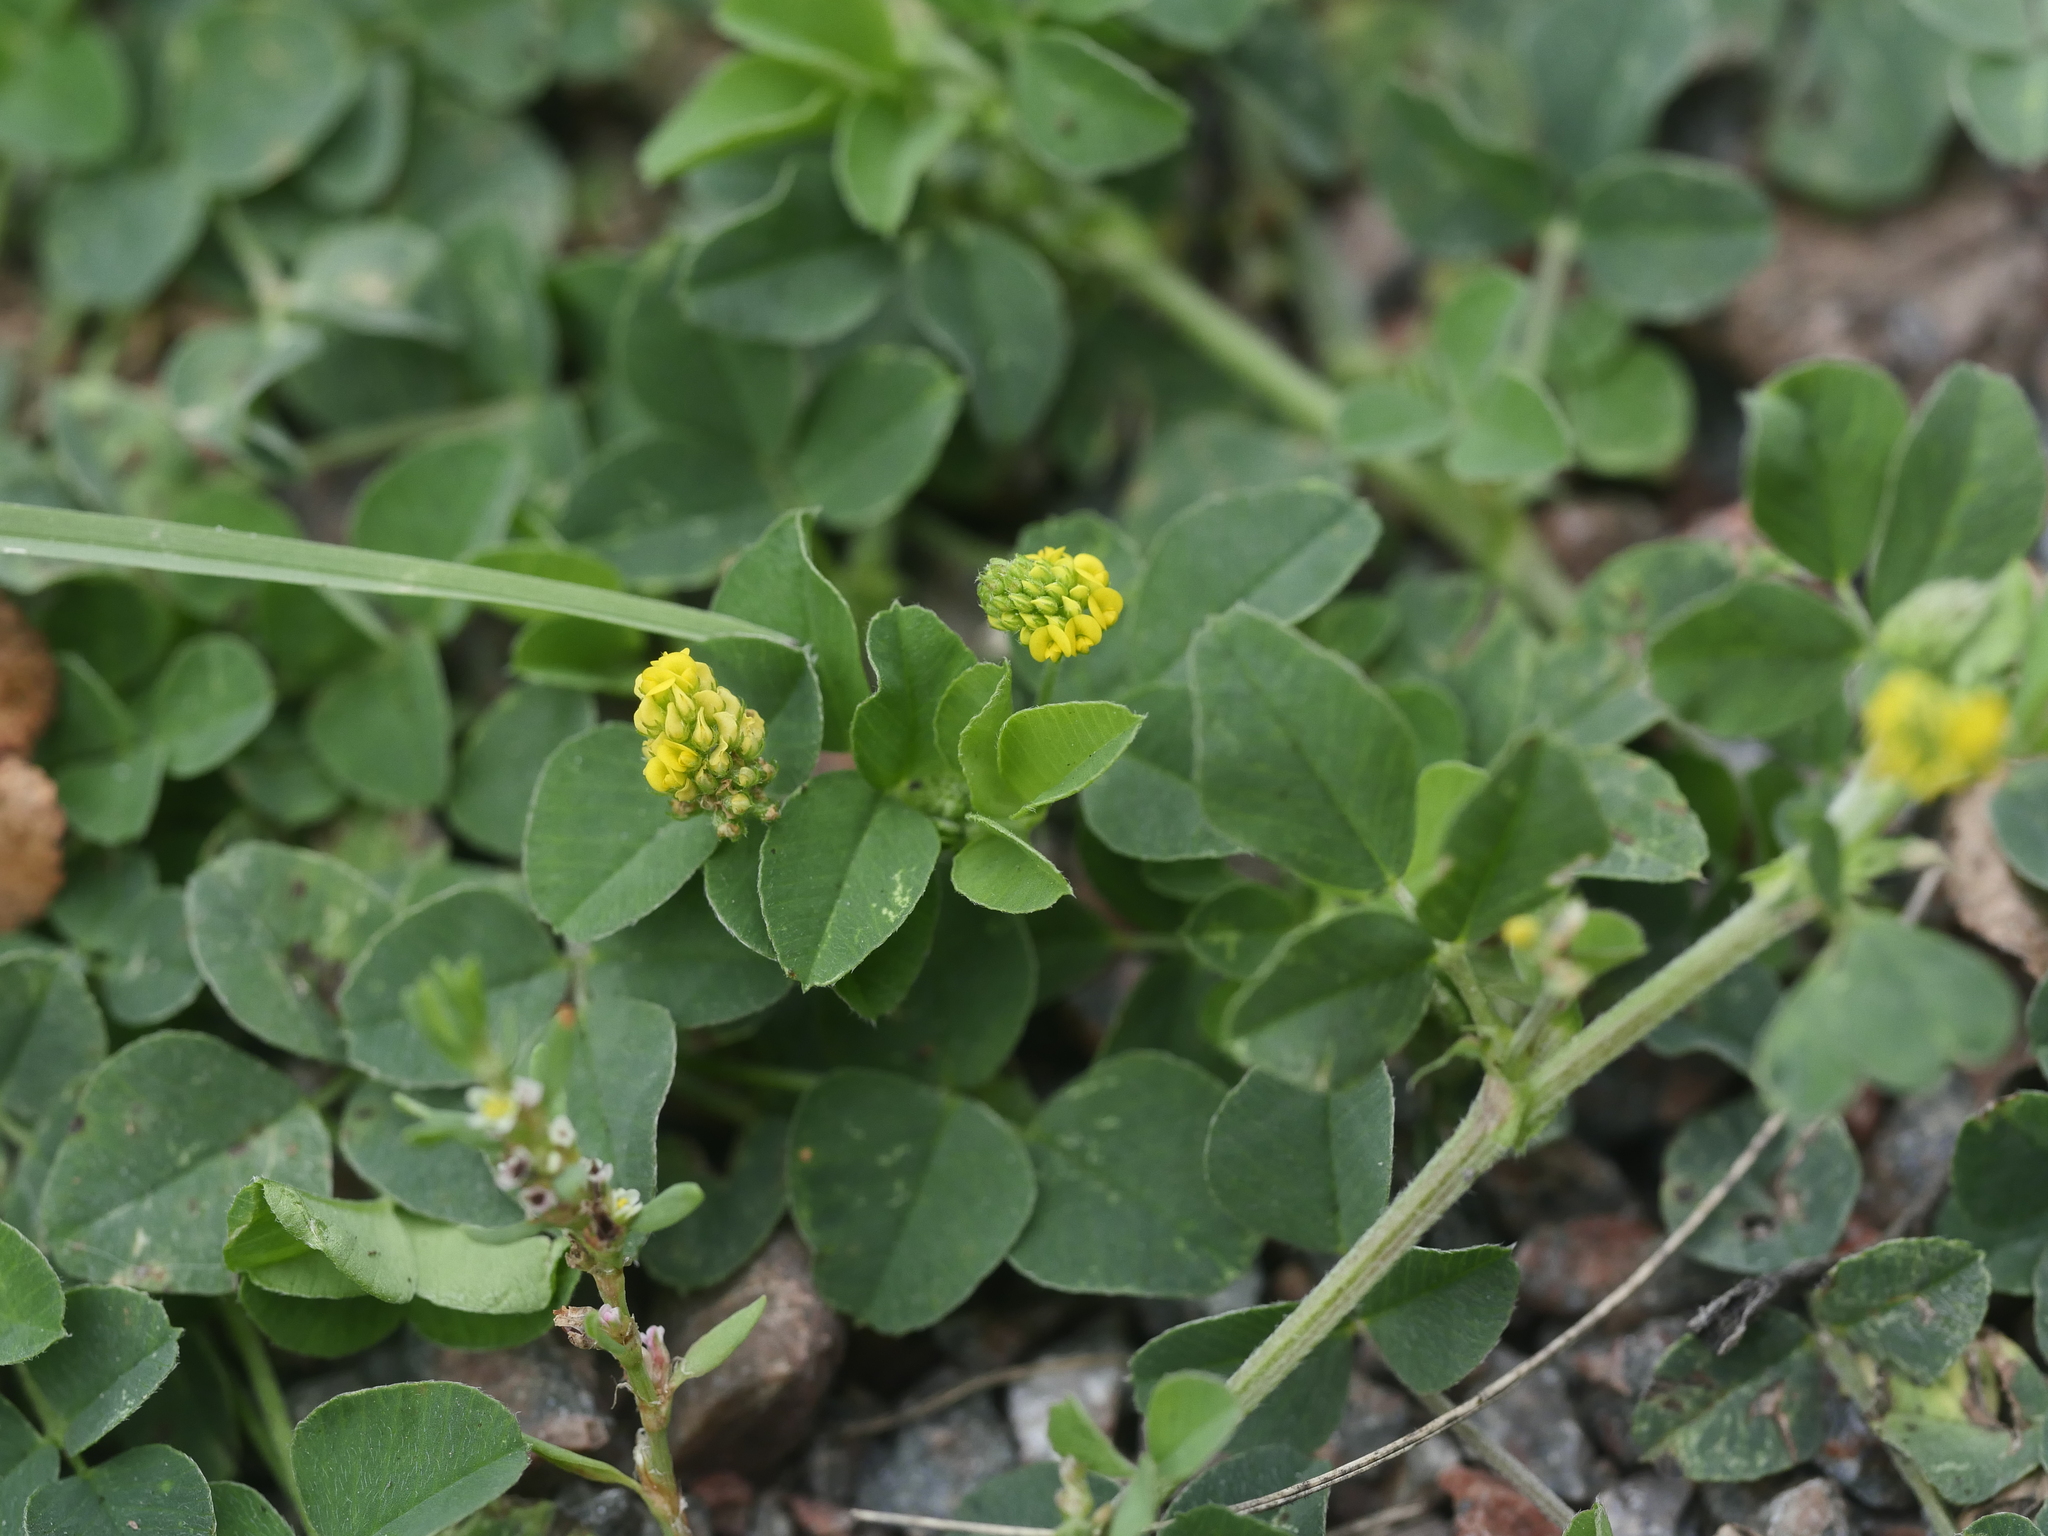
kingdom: Plantae
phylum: Tracheophyta
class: Magnoliopsida
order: Fabales
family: Fabaceae
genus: Medicago
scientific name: Medicago lupulina
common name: Black medick
